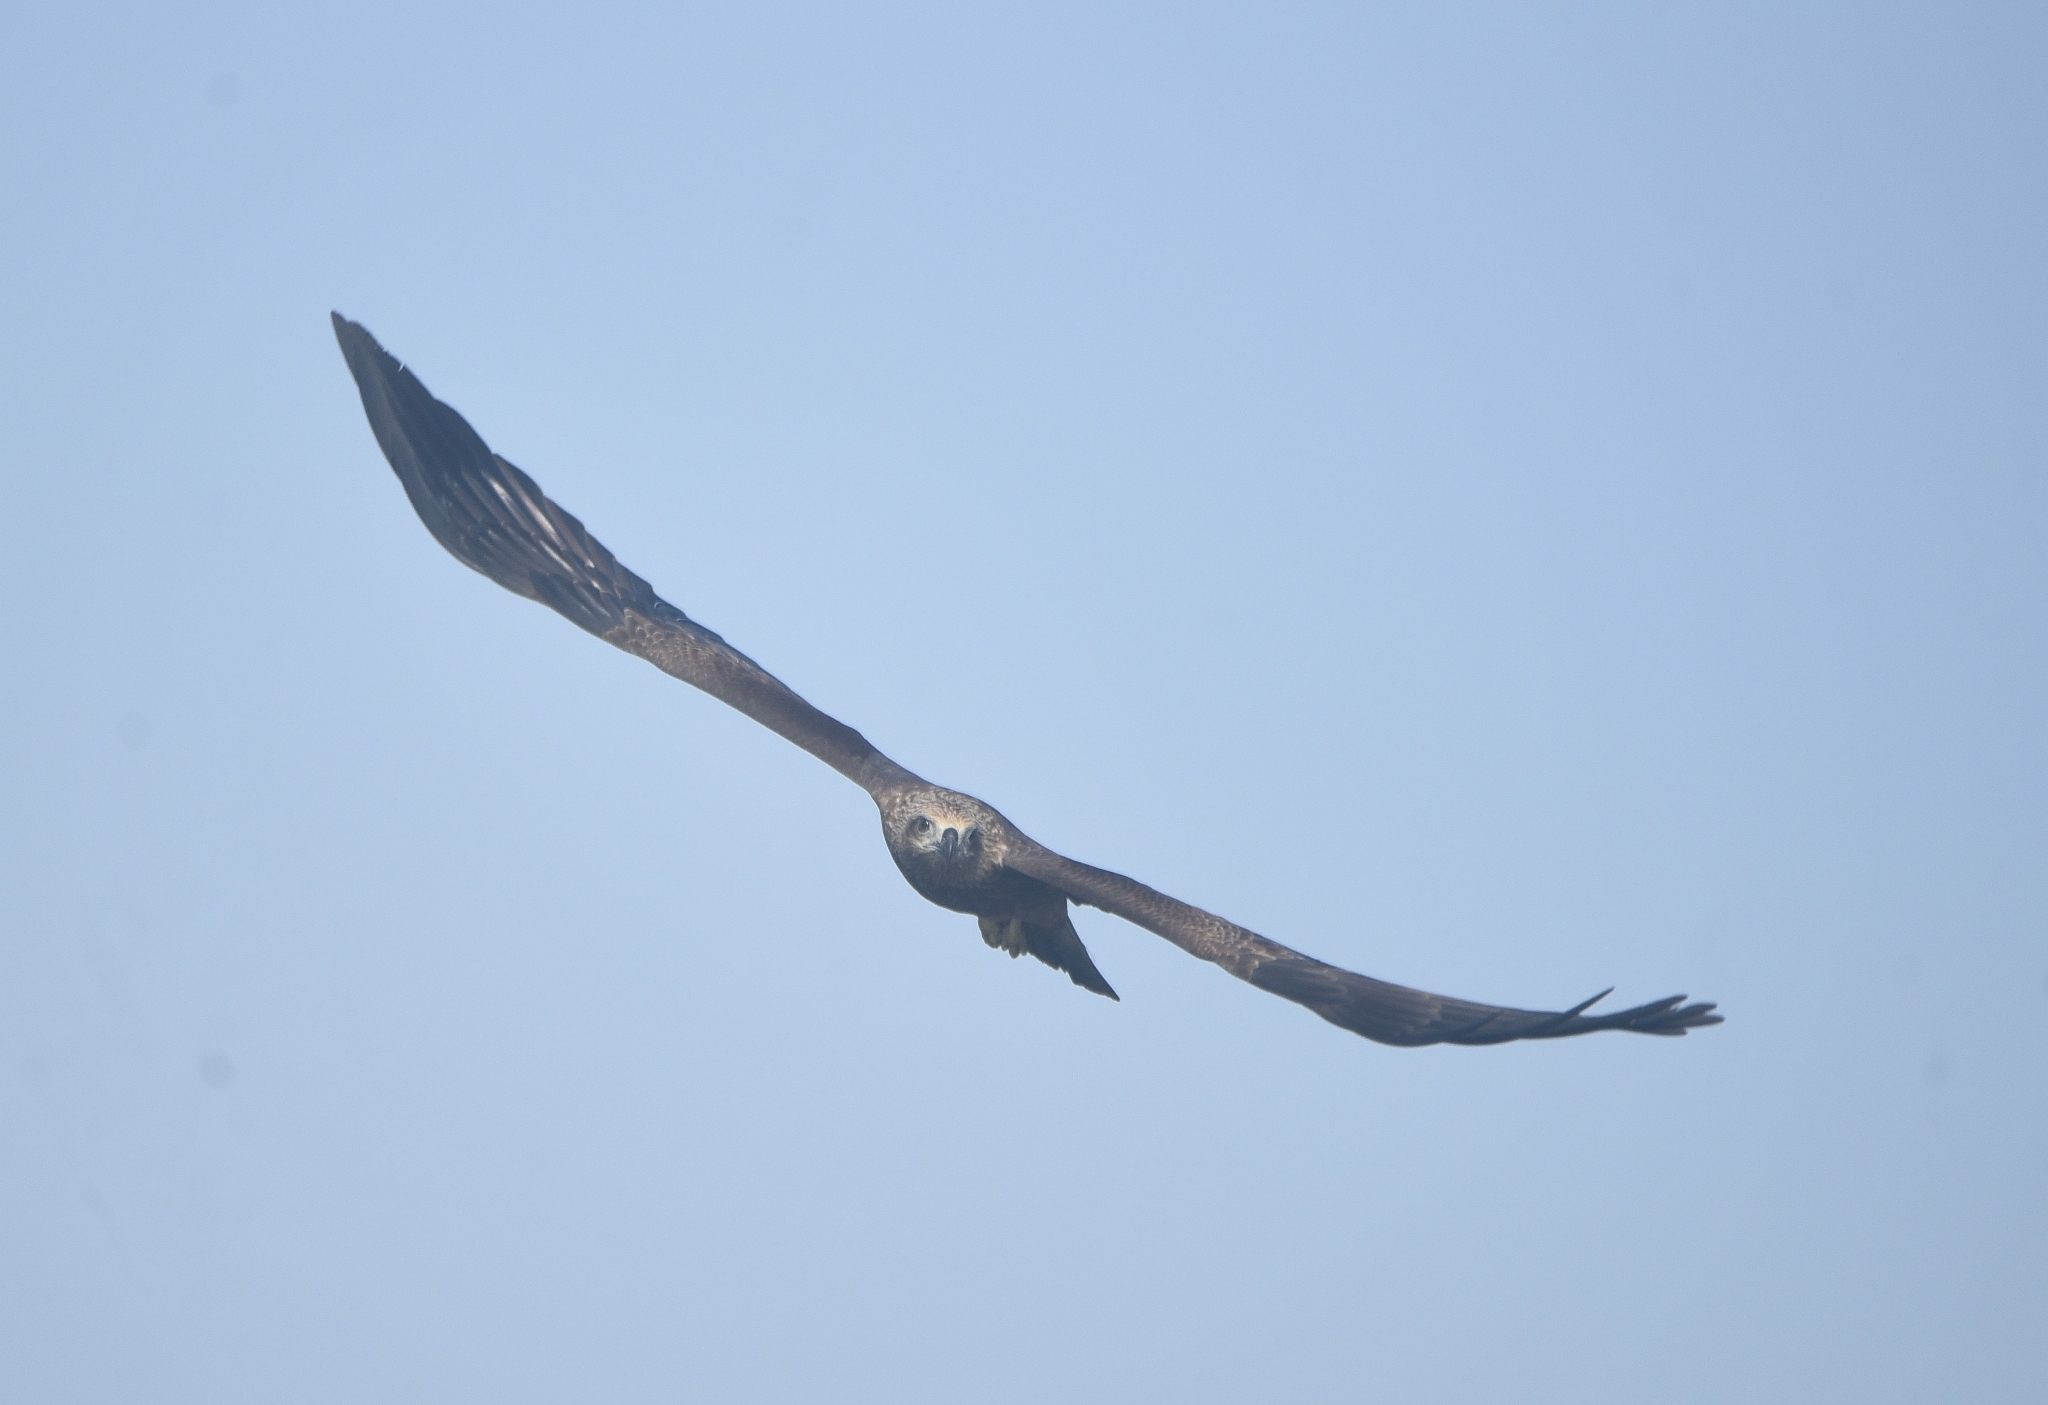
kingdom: Animalia
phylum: Chordata
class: Aves
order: Accipitriformes
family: Accipitridae
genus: Haliastur
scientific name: Haliastur indus
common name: Brahminy kite
